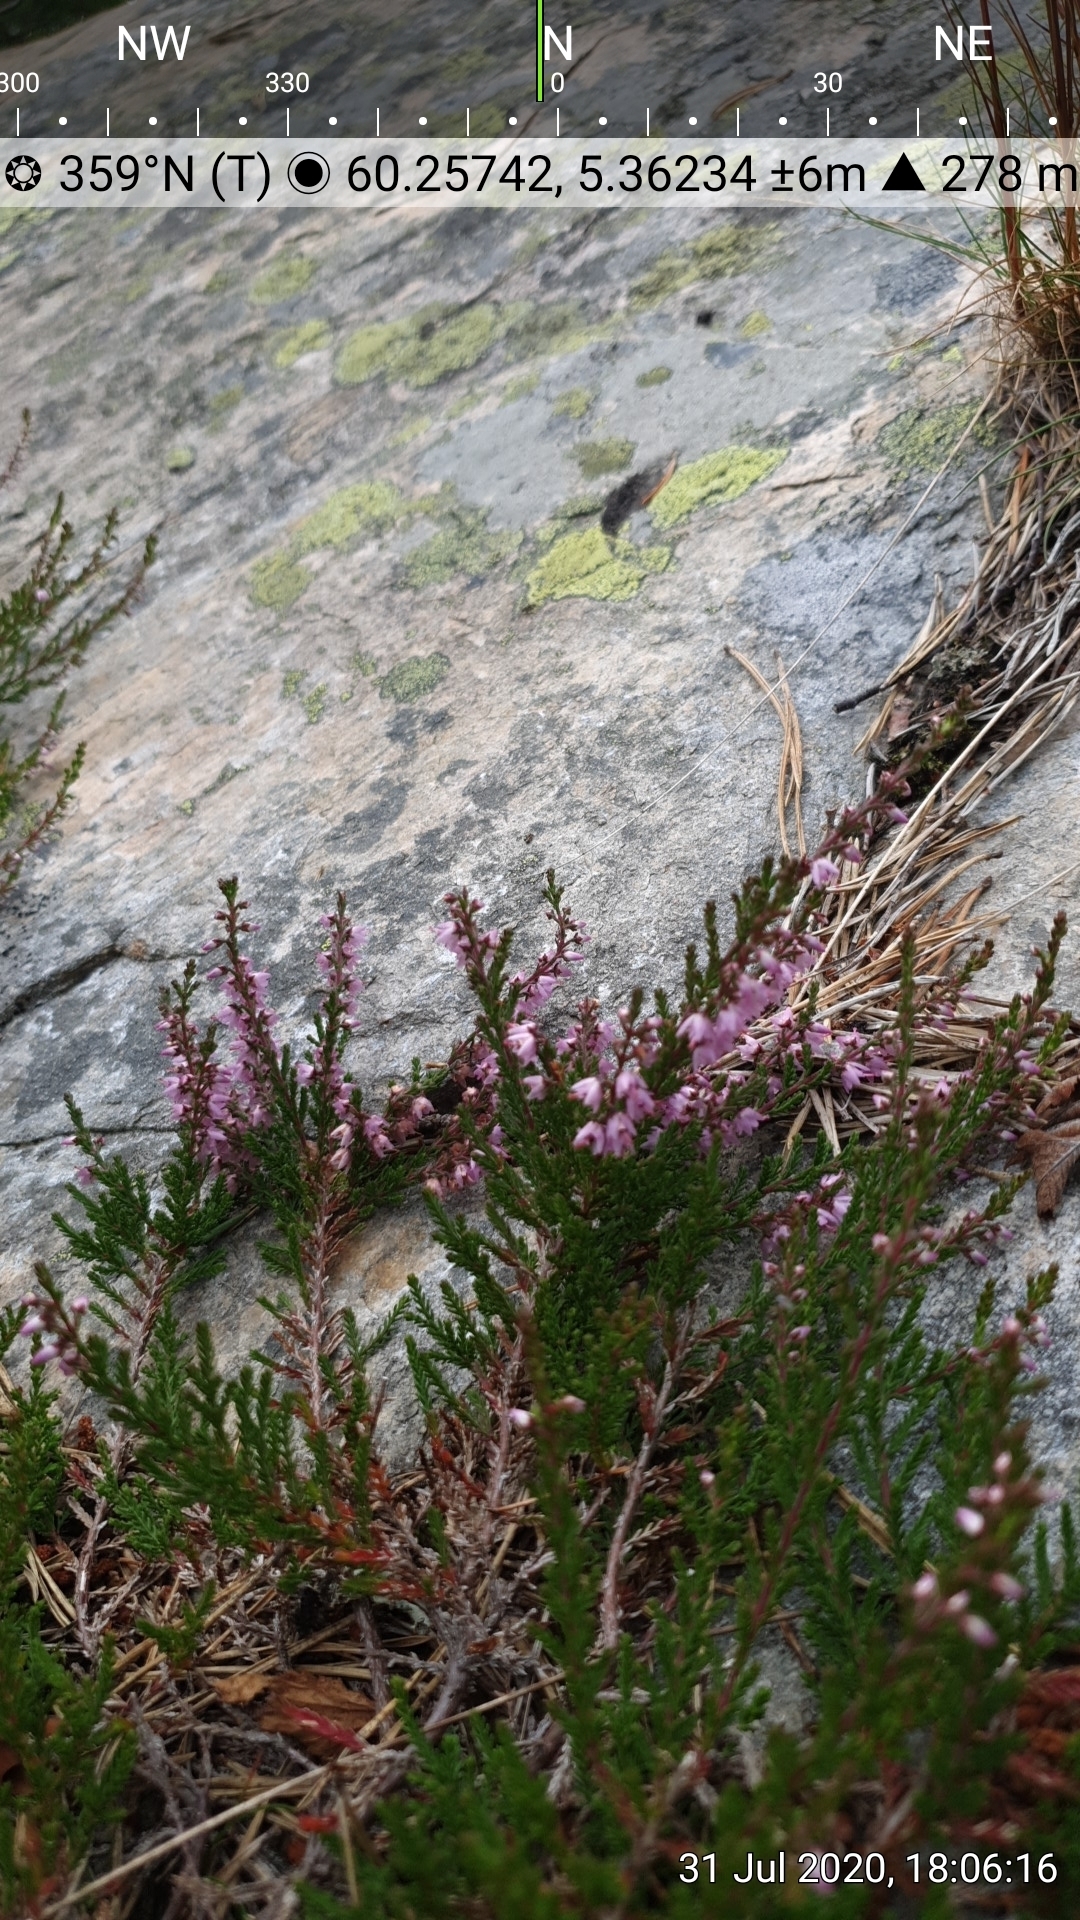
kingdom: Plantae
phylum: Tracheophyta
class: Magnoliopsida
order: Ericales
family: Ericaceae
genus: Calluna
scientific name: Calluna vulgaris
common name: Heather
